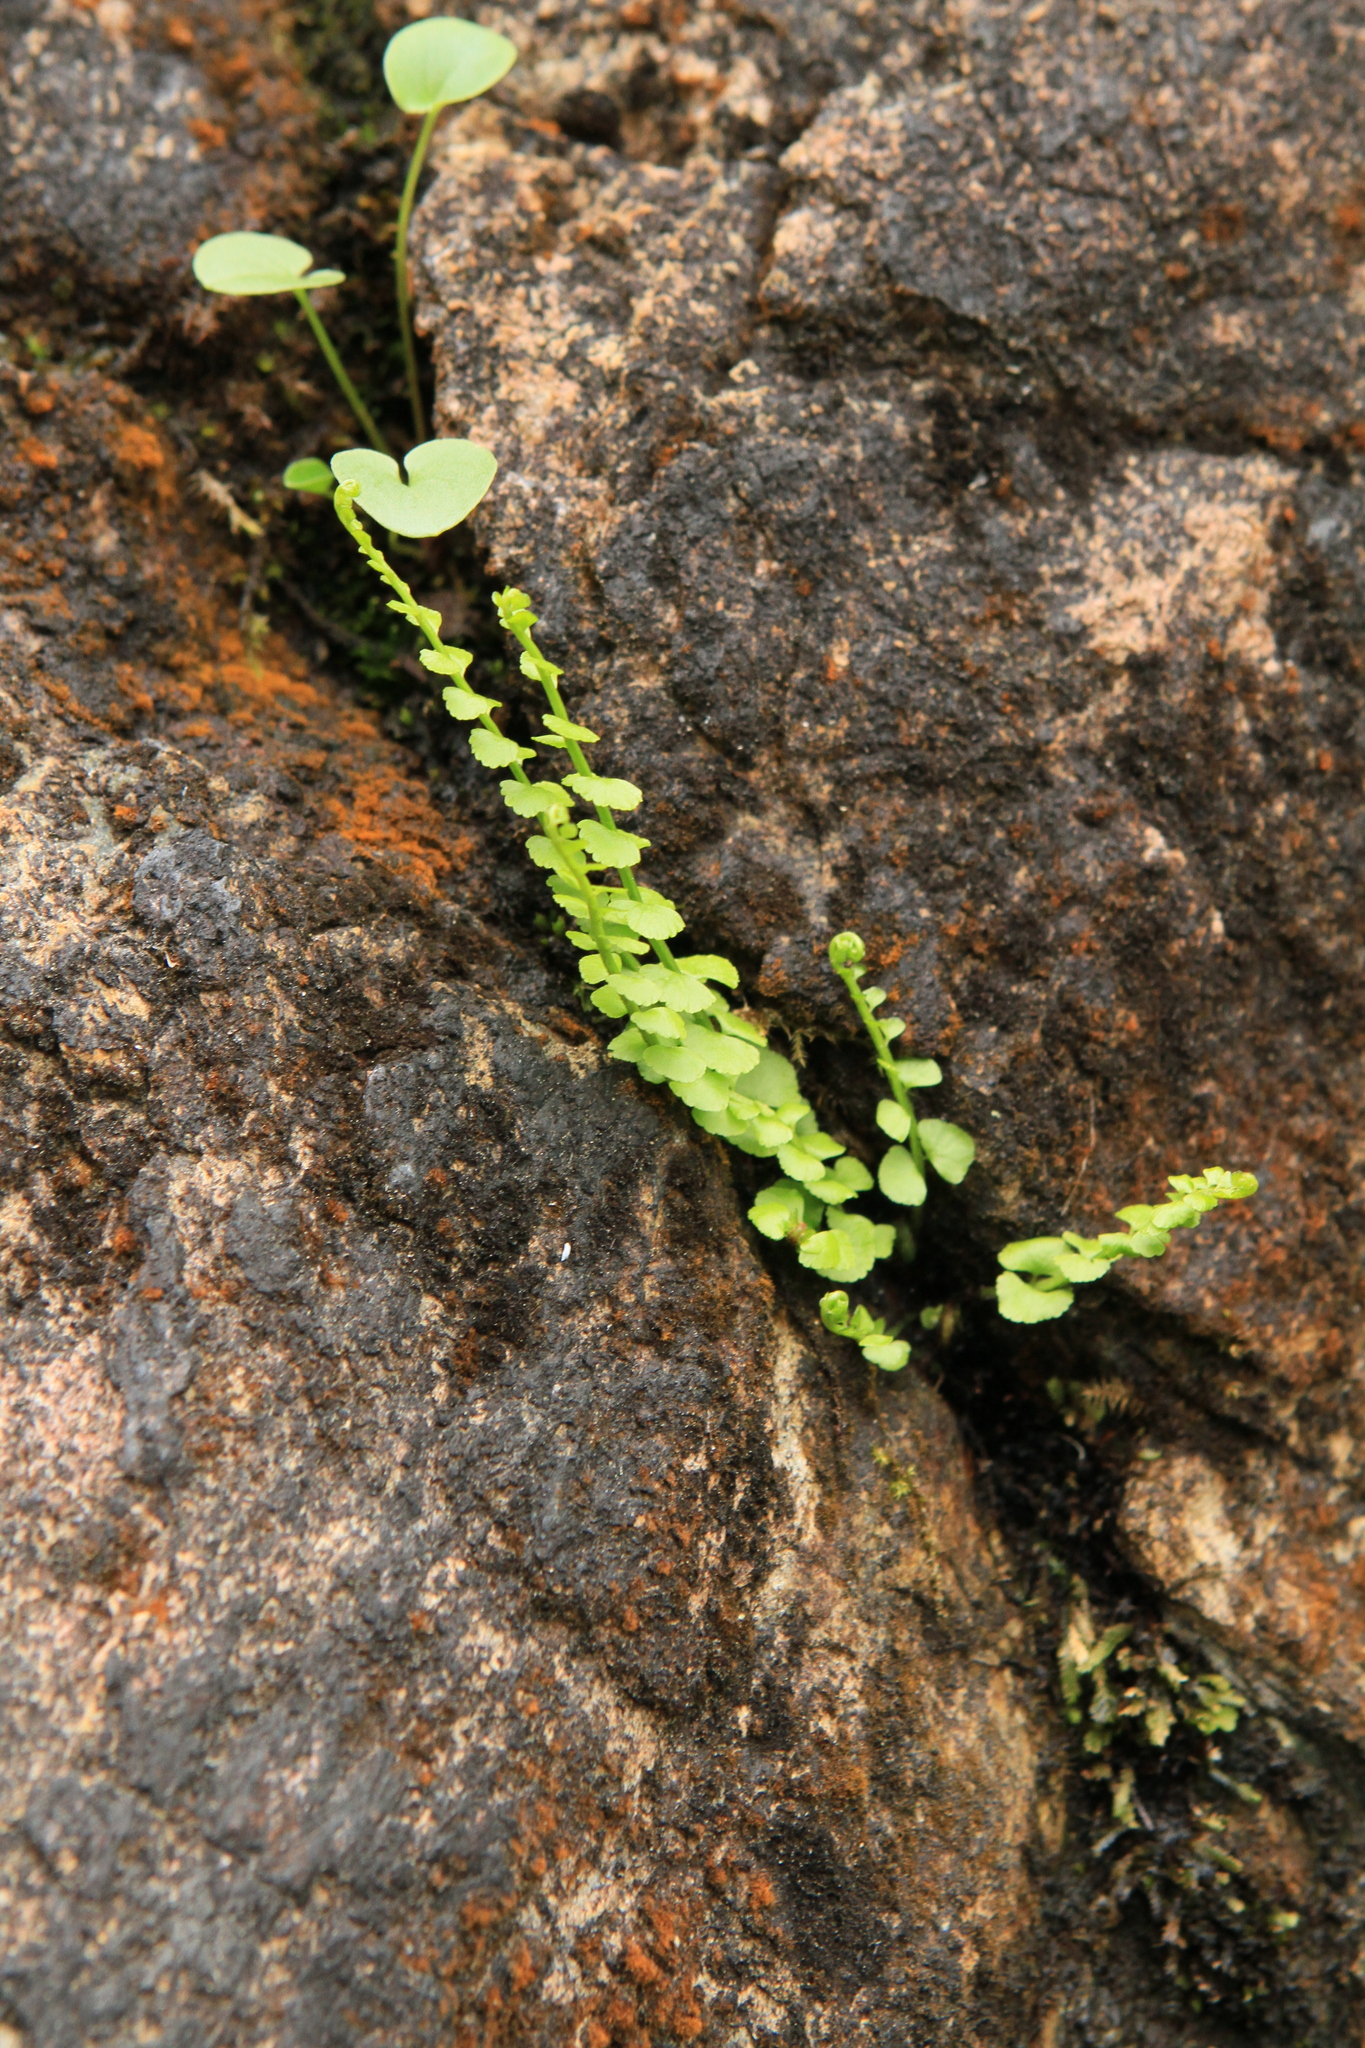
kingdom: Plantae
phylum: Tracheophyta
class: Polypodiopsida
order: Polypodiales
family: Aspleniaceae
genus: Asplenium
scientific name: Asplenium viride
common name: Green spleenwort
